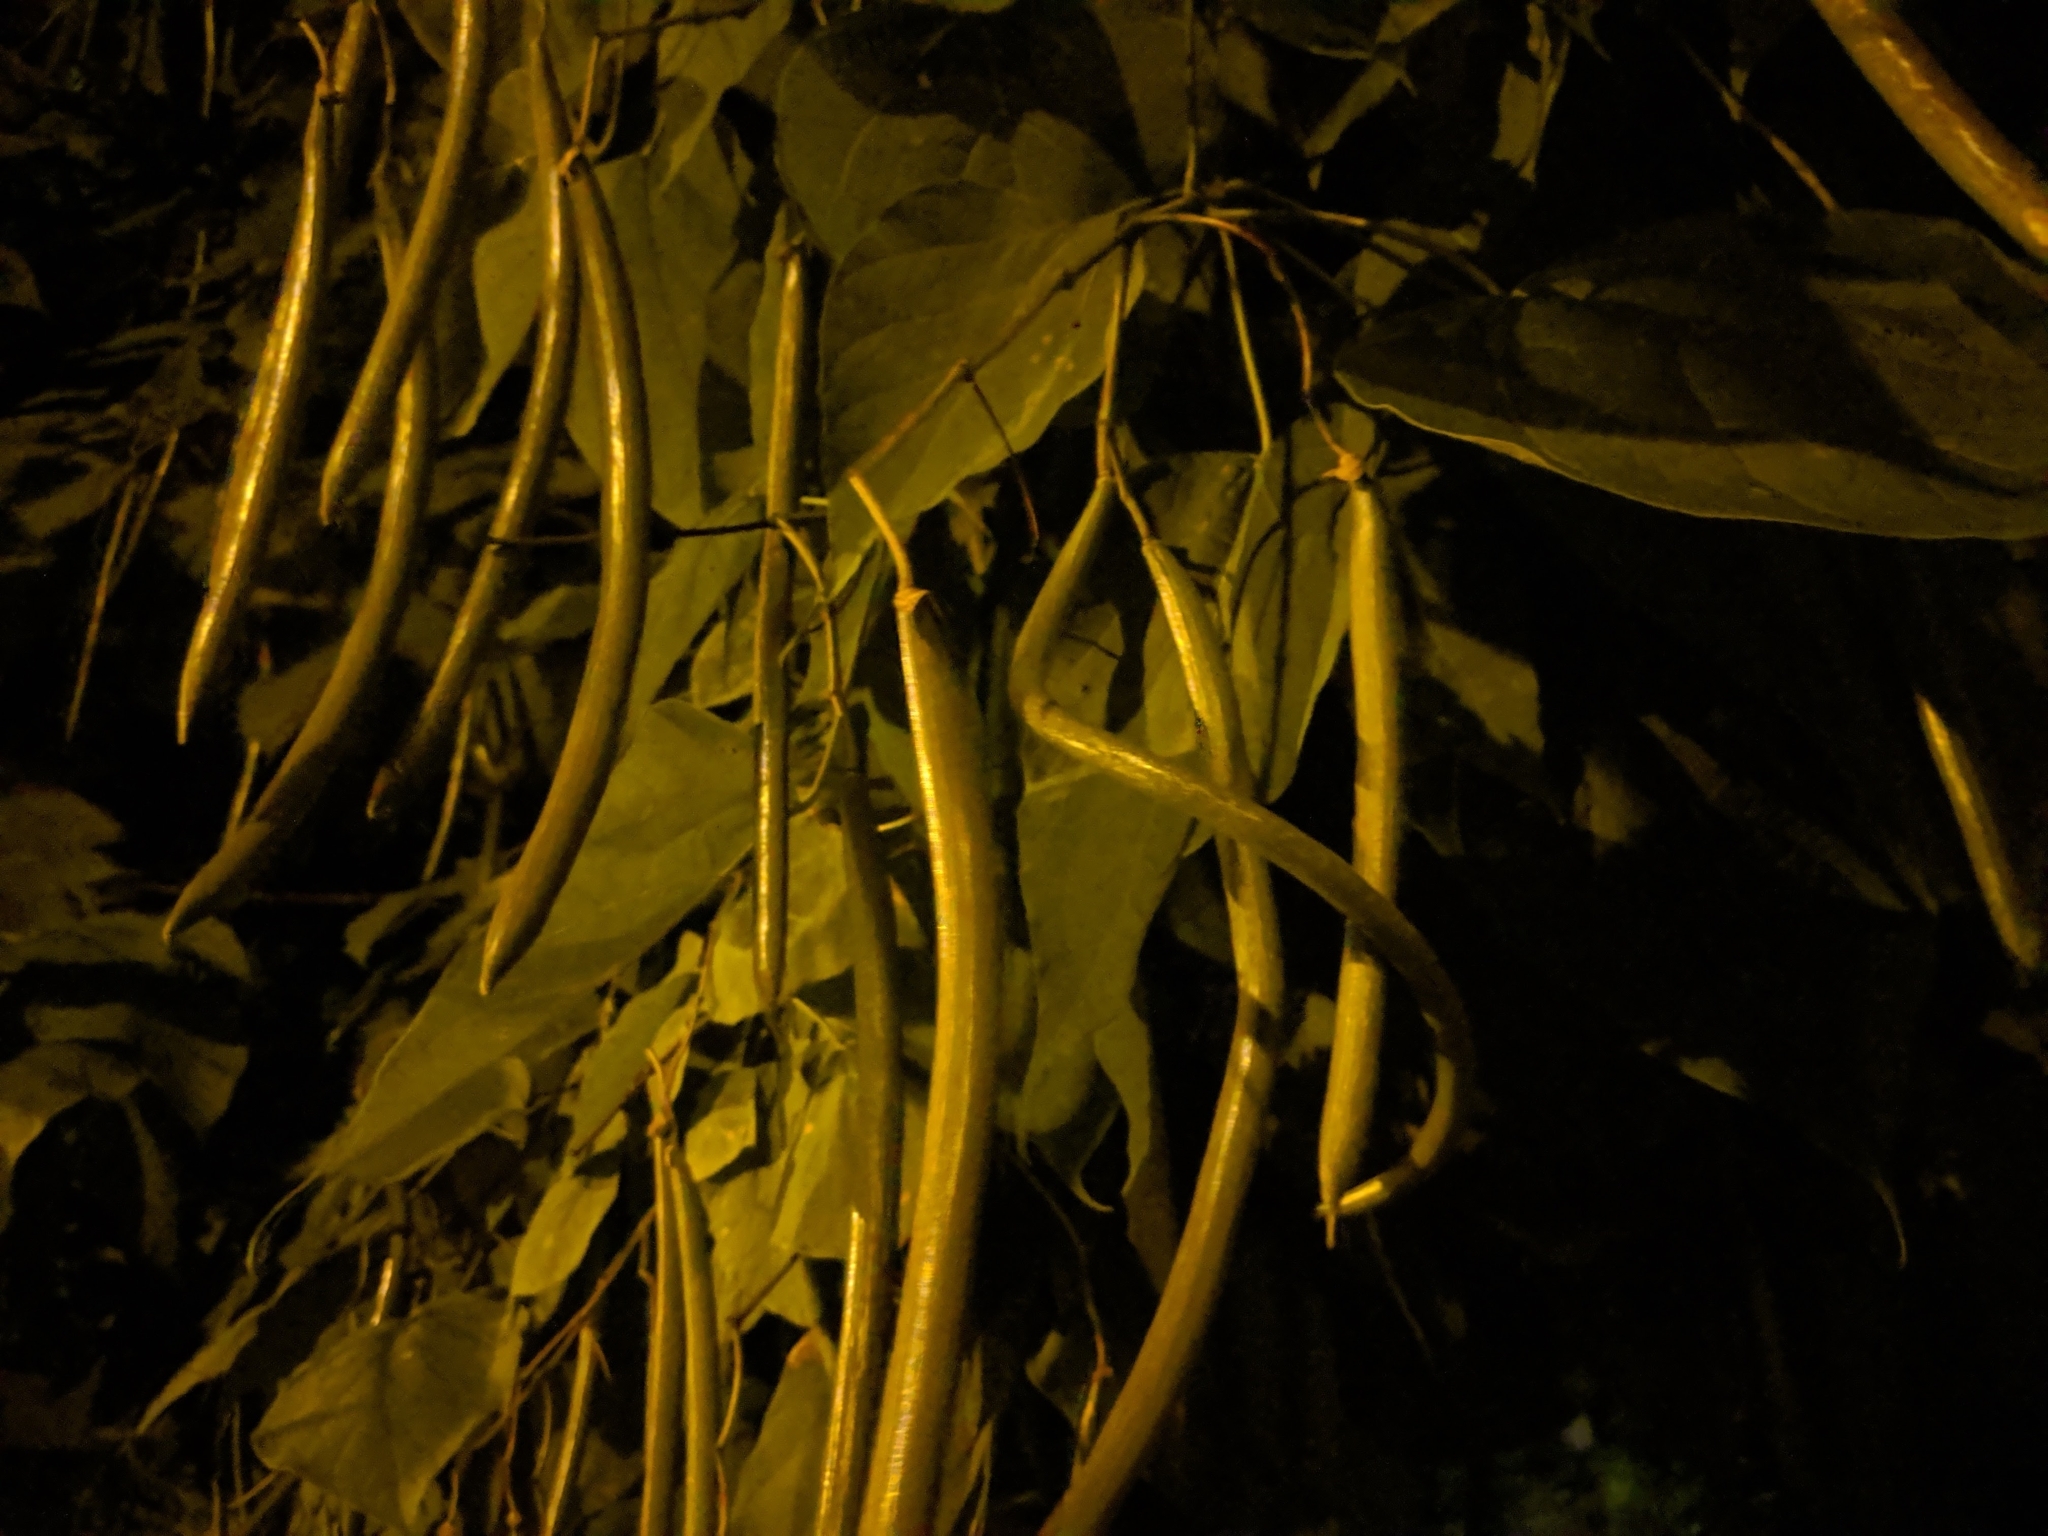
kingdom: Plantae
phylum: Tracheophyta
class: Magnoliopsida
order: Lamiales
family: Bignoniaceae
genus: Catalpa
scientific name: Catalpa speciosa
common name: Northern catalpa
